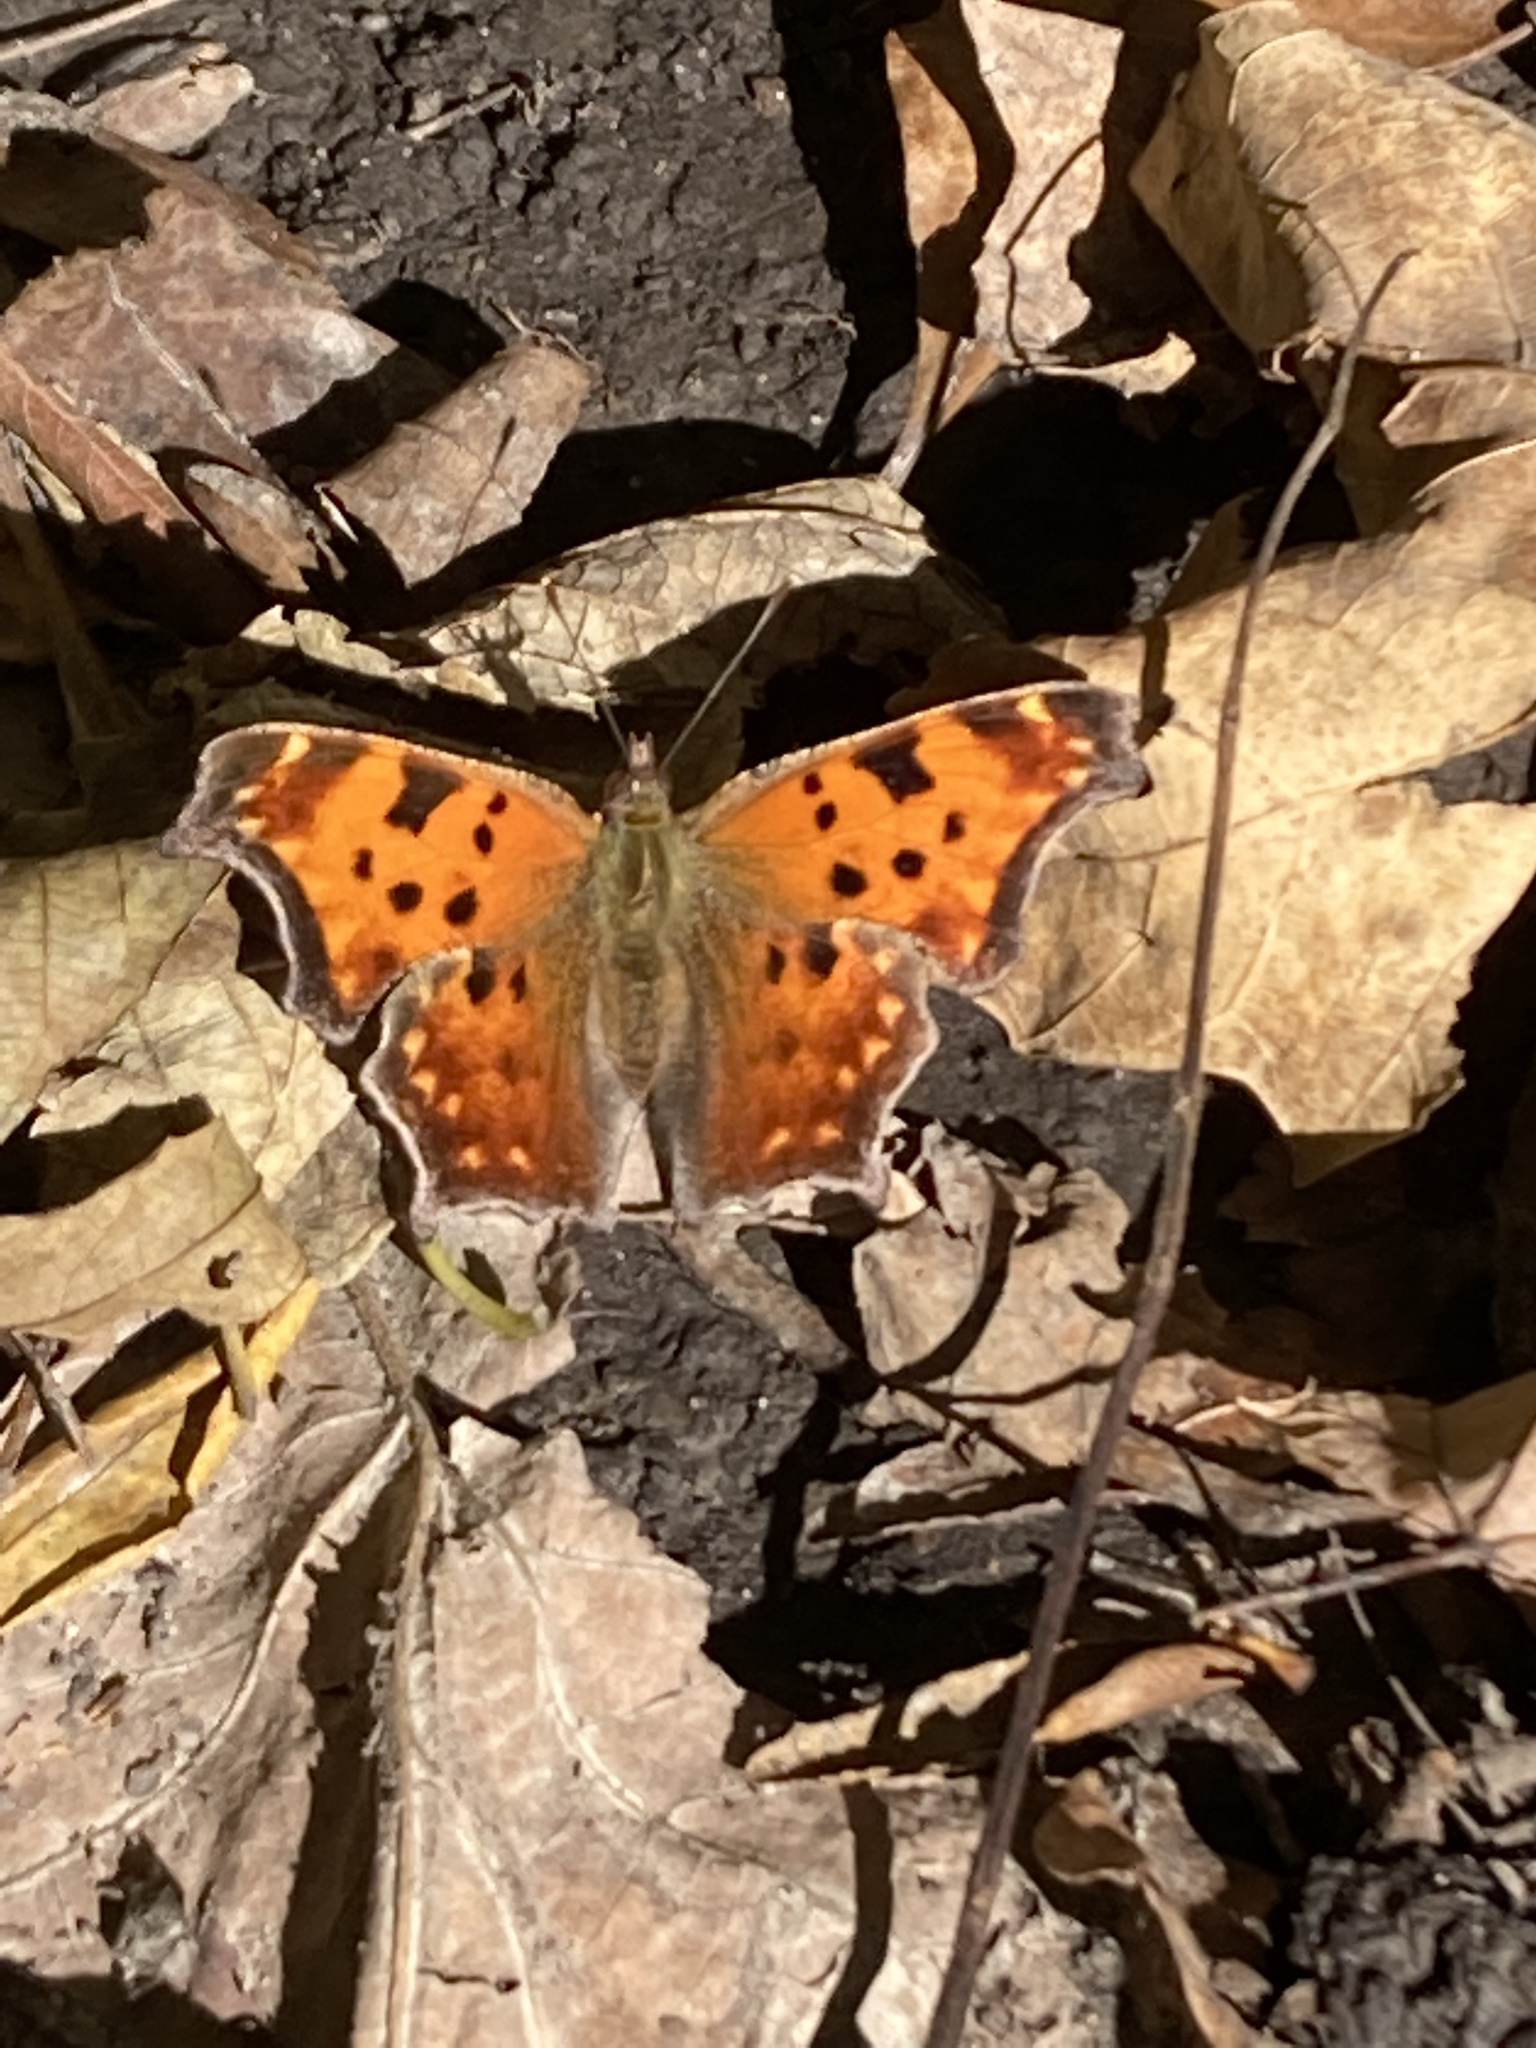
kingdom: Animalia
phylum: Arthropoda
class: Insecta
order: Lepidoptera
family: Nymphalidae
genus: Polygonia
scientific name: Polygonia comma
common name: Eastern comma
